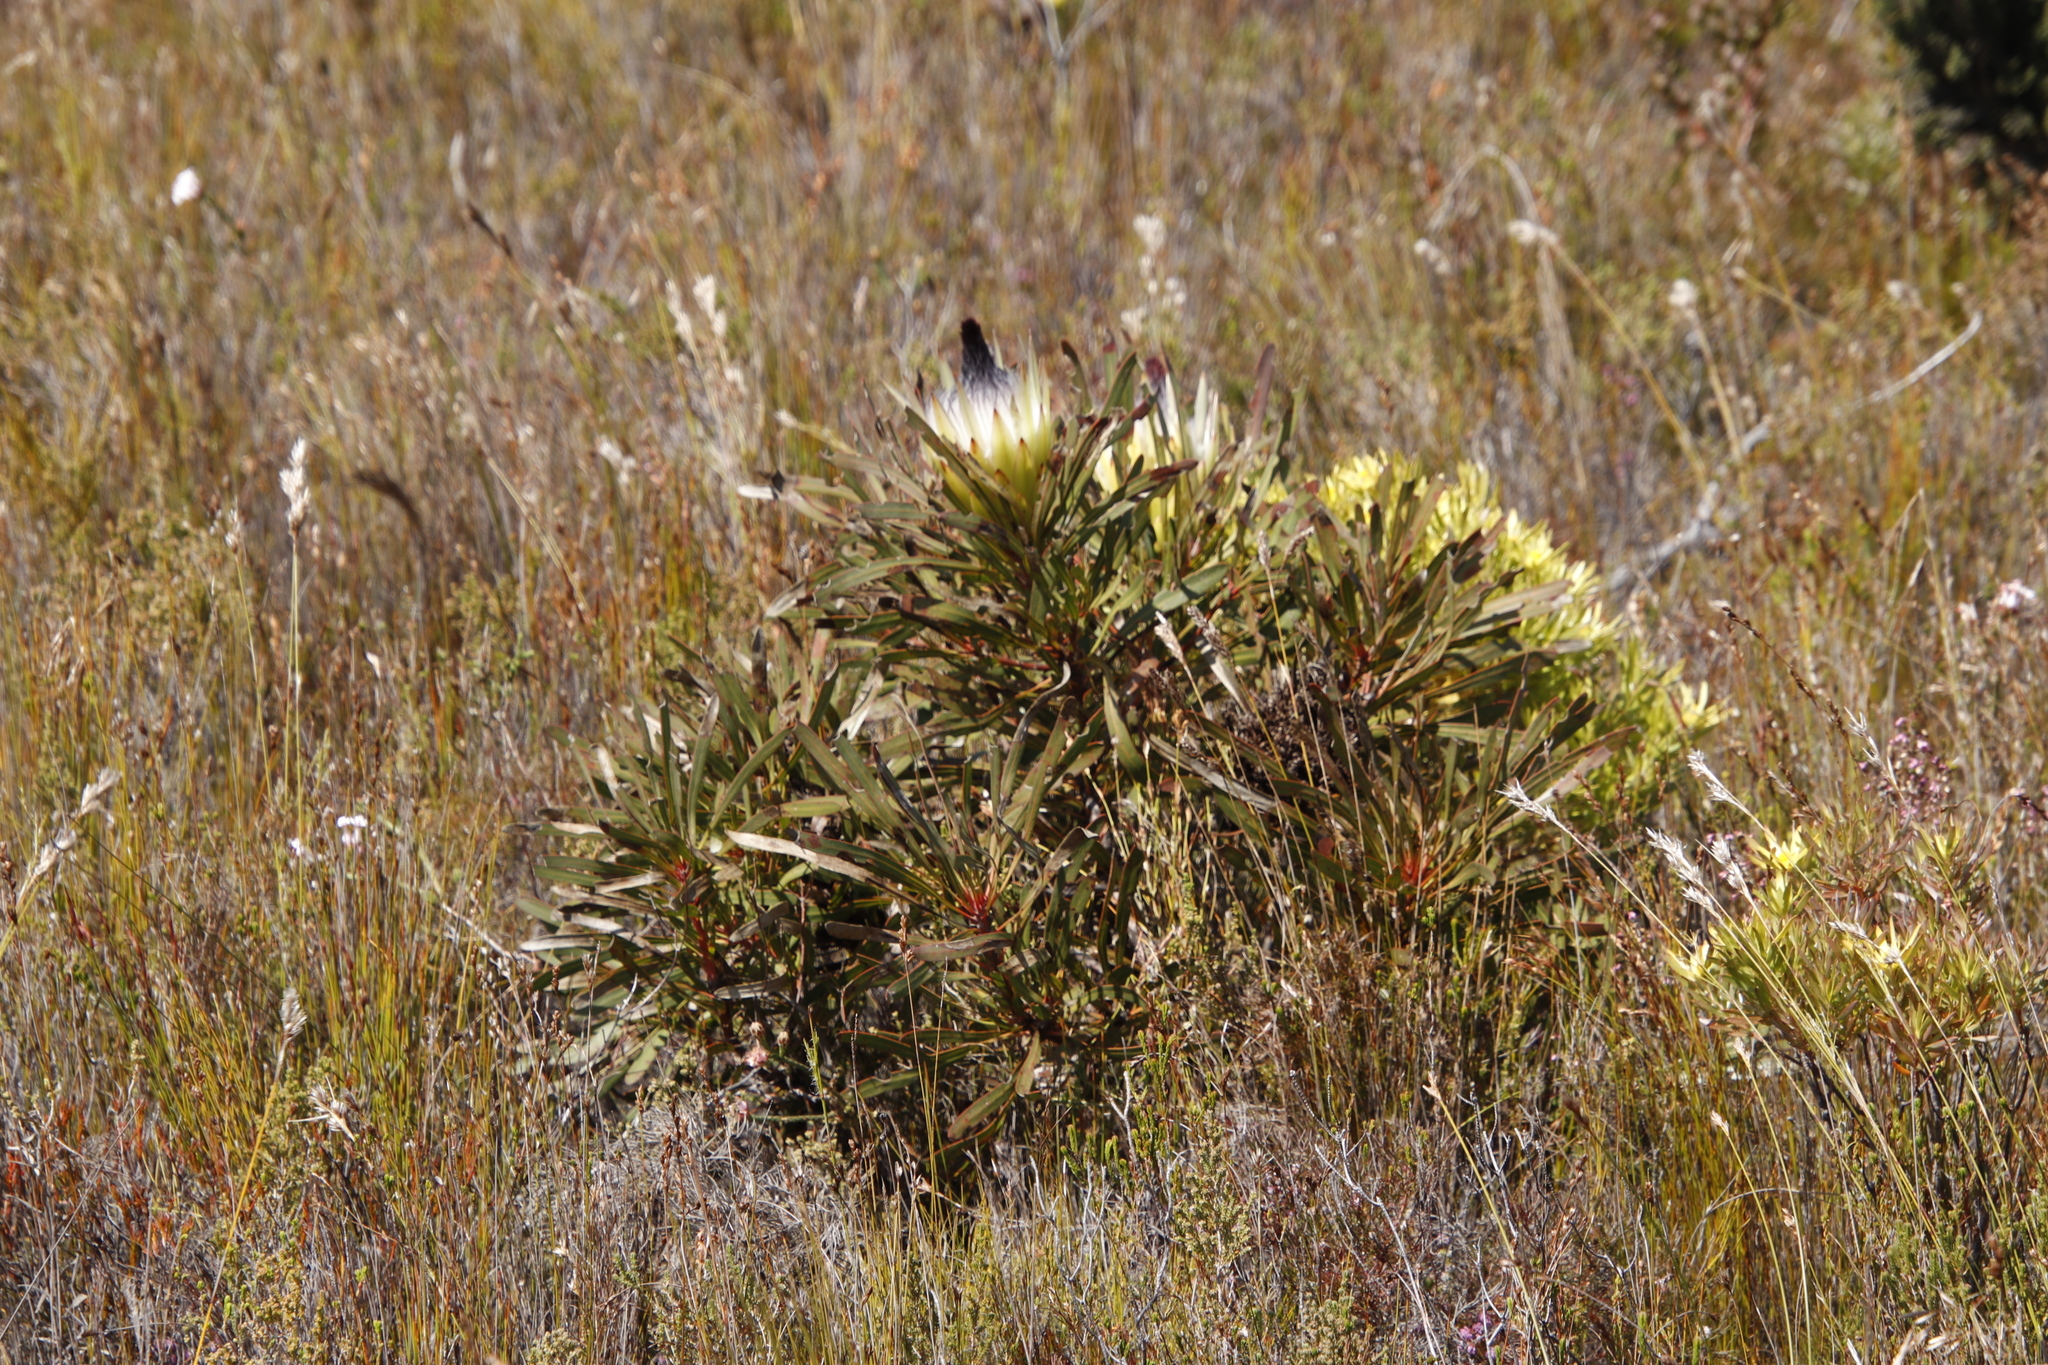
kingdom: Plantae
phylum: Tracheophyta
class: Magnoliopsida
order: Proteales
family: Proteaceae
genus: Protea
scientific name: Protea longifolia
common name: Long-leaf sugarbush
